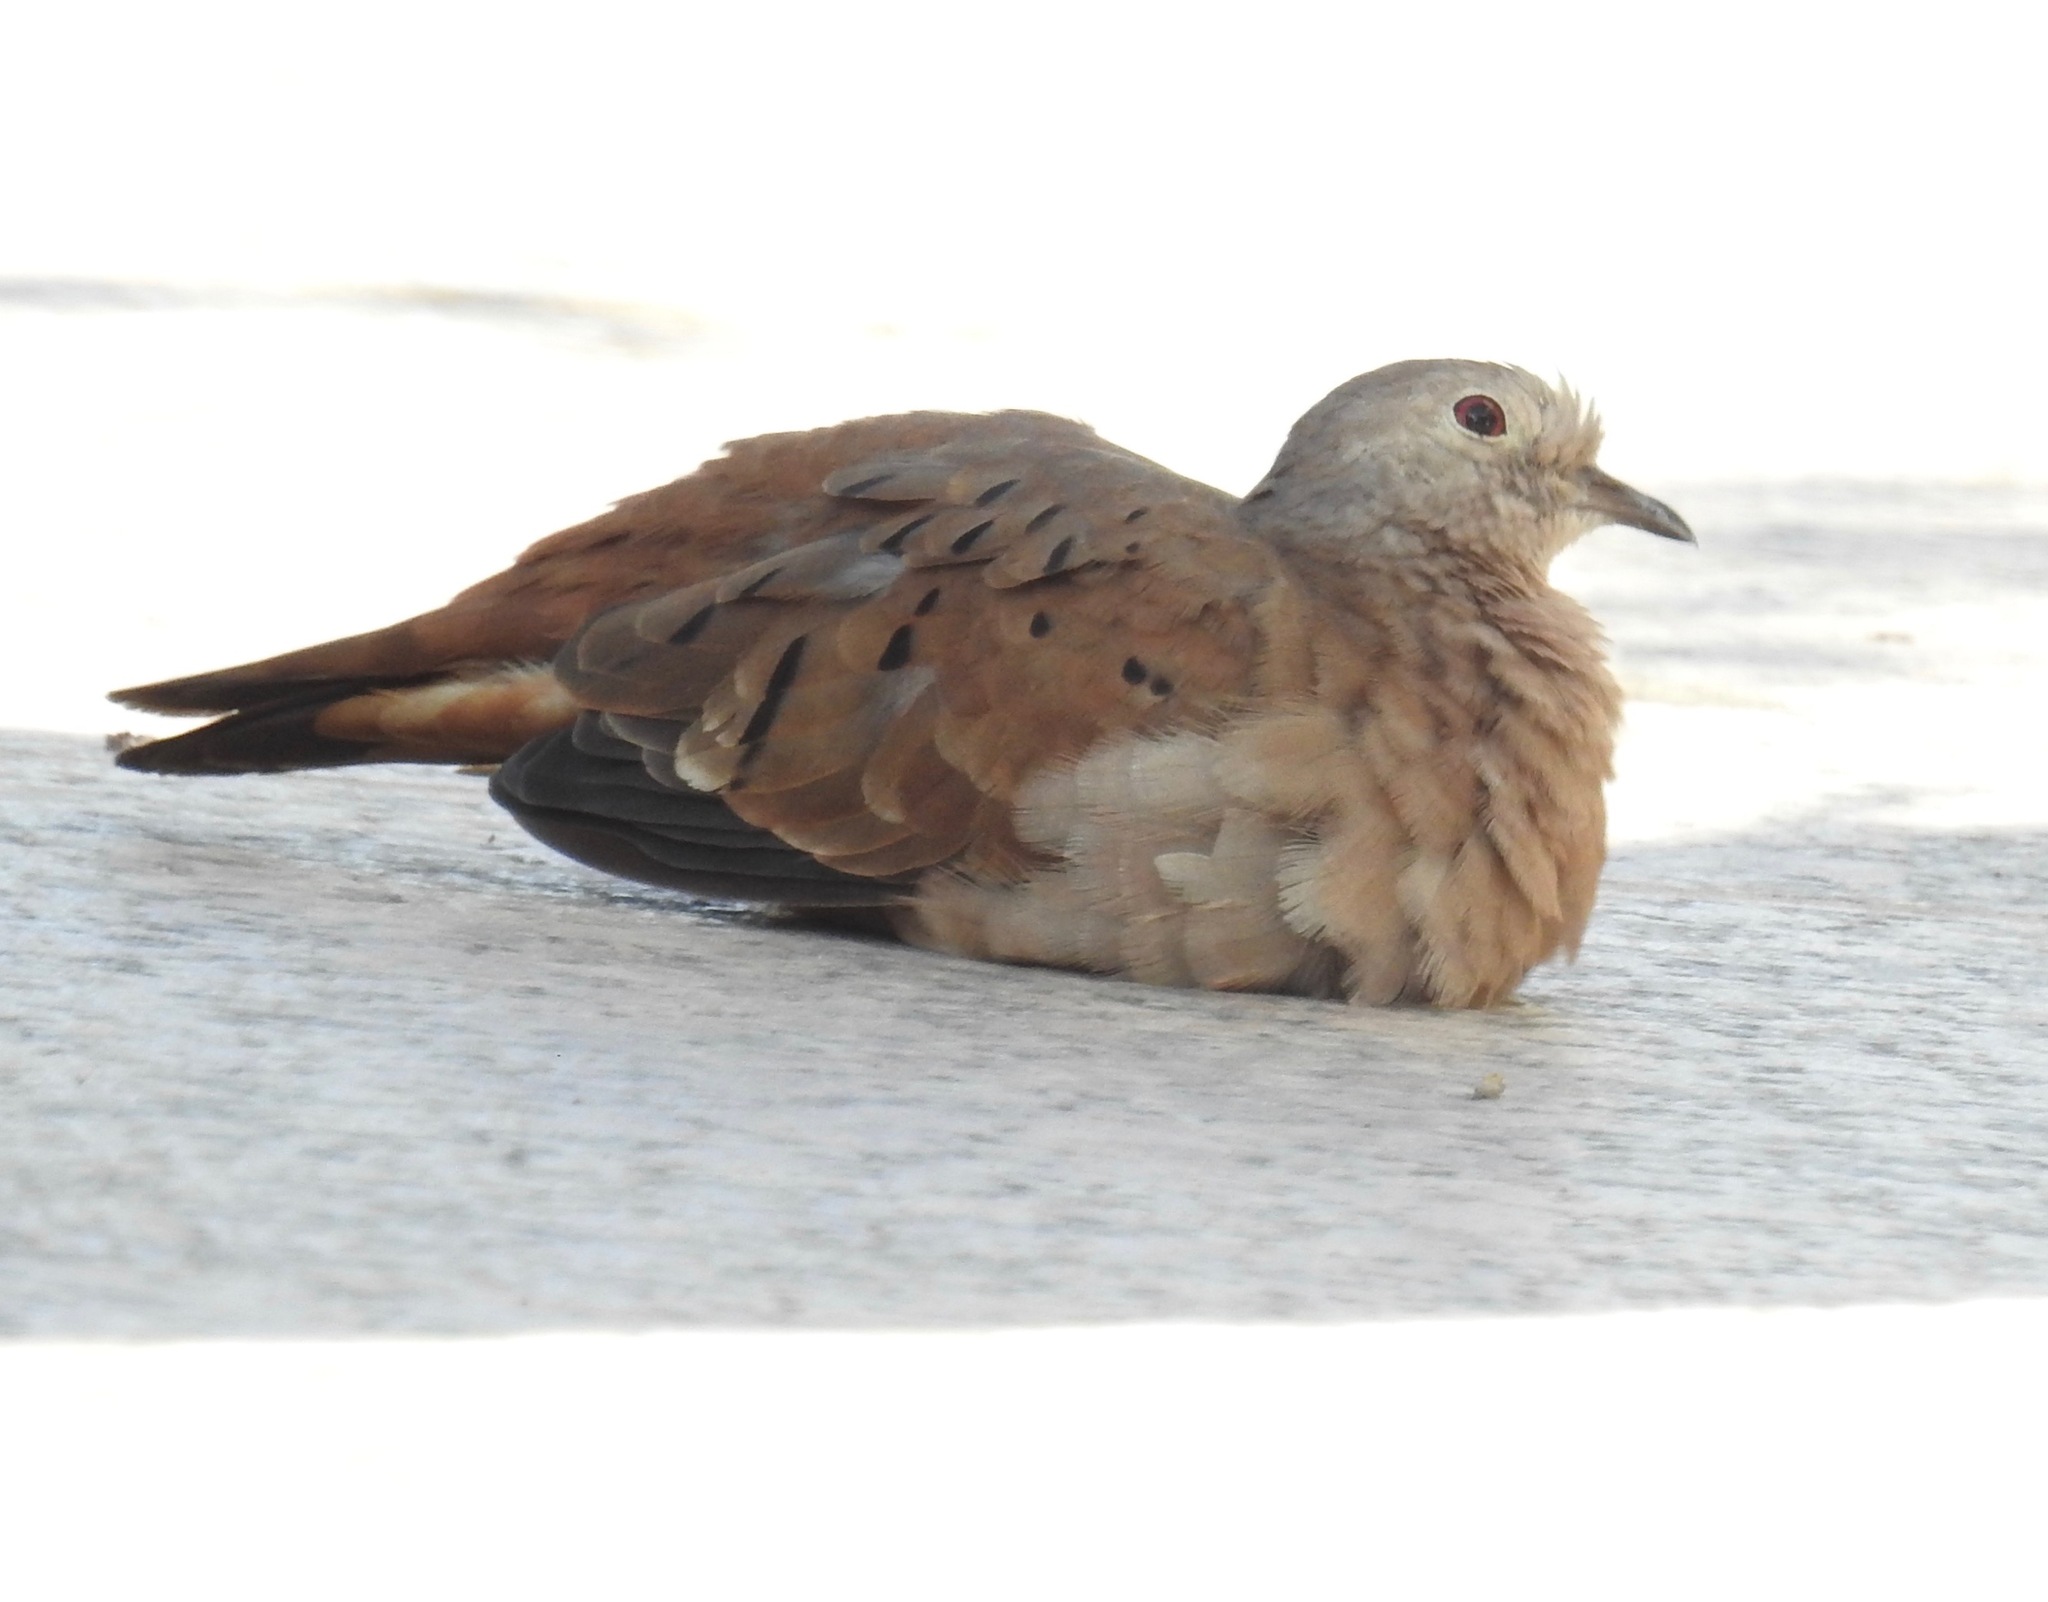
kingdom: Animalia
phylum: Chordata
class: Aves
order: Columbiformes
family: Columbidae
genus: Columbina
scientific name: Columbina talpacoti
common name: Ruddy ground dove
